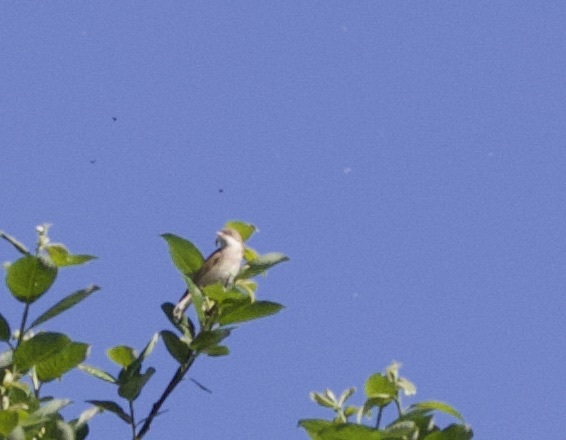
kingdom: Animalia
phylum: Chordata
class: Aves
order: Passeriformes
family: Sylviidae
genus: Sylvia
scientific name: Sylvia communis
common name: Common whitethroat
